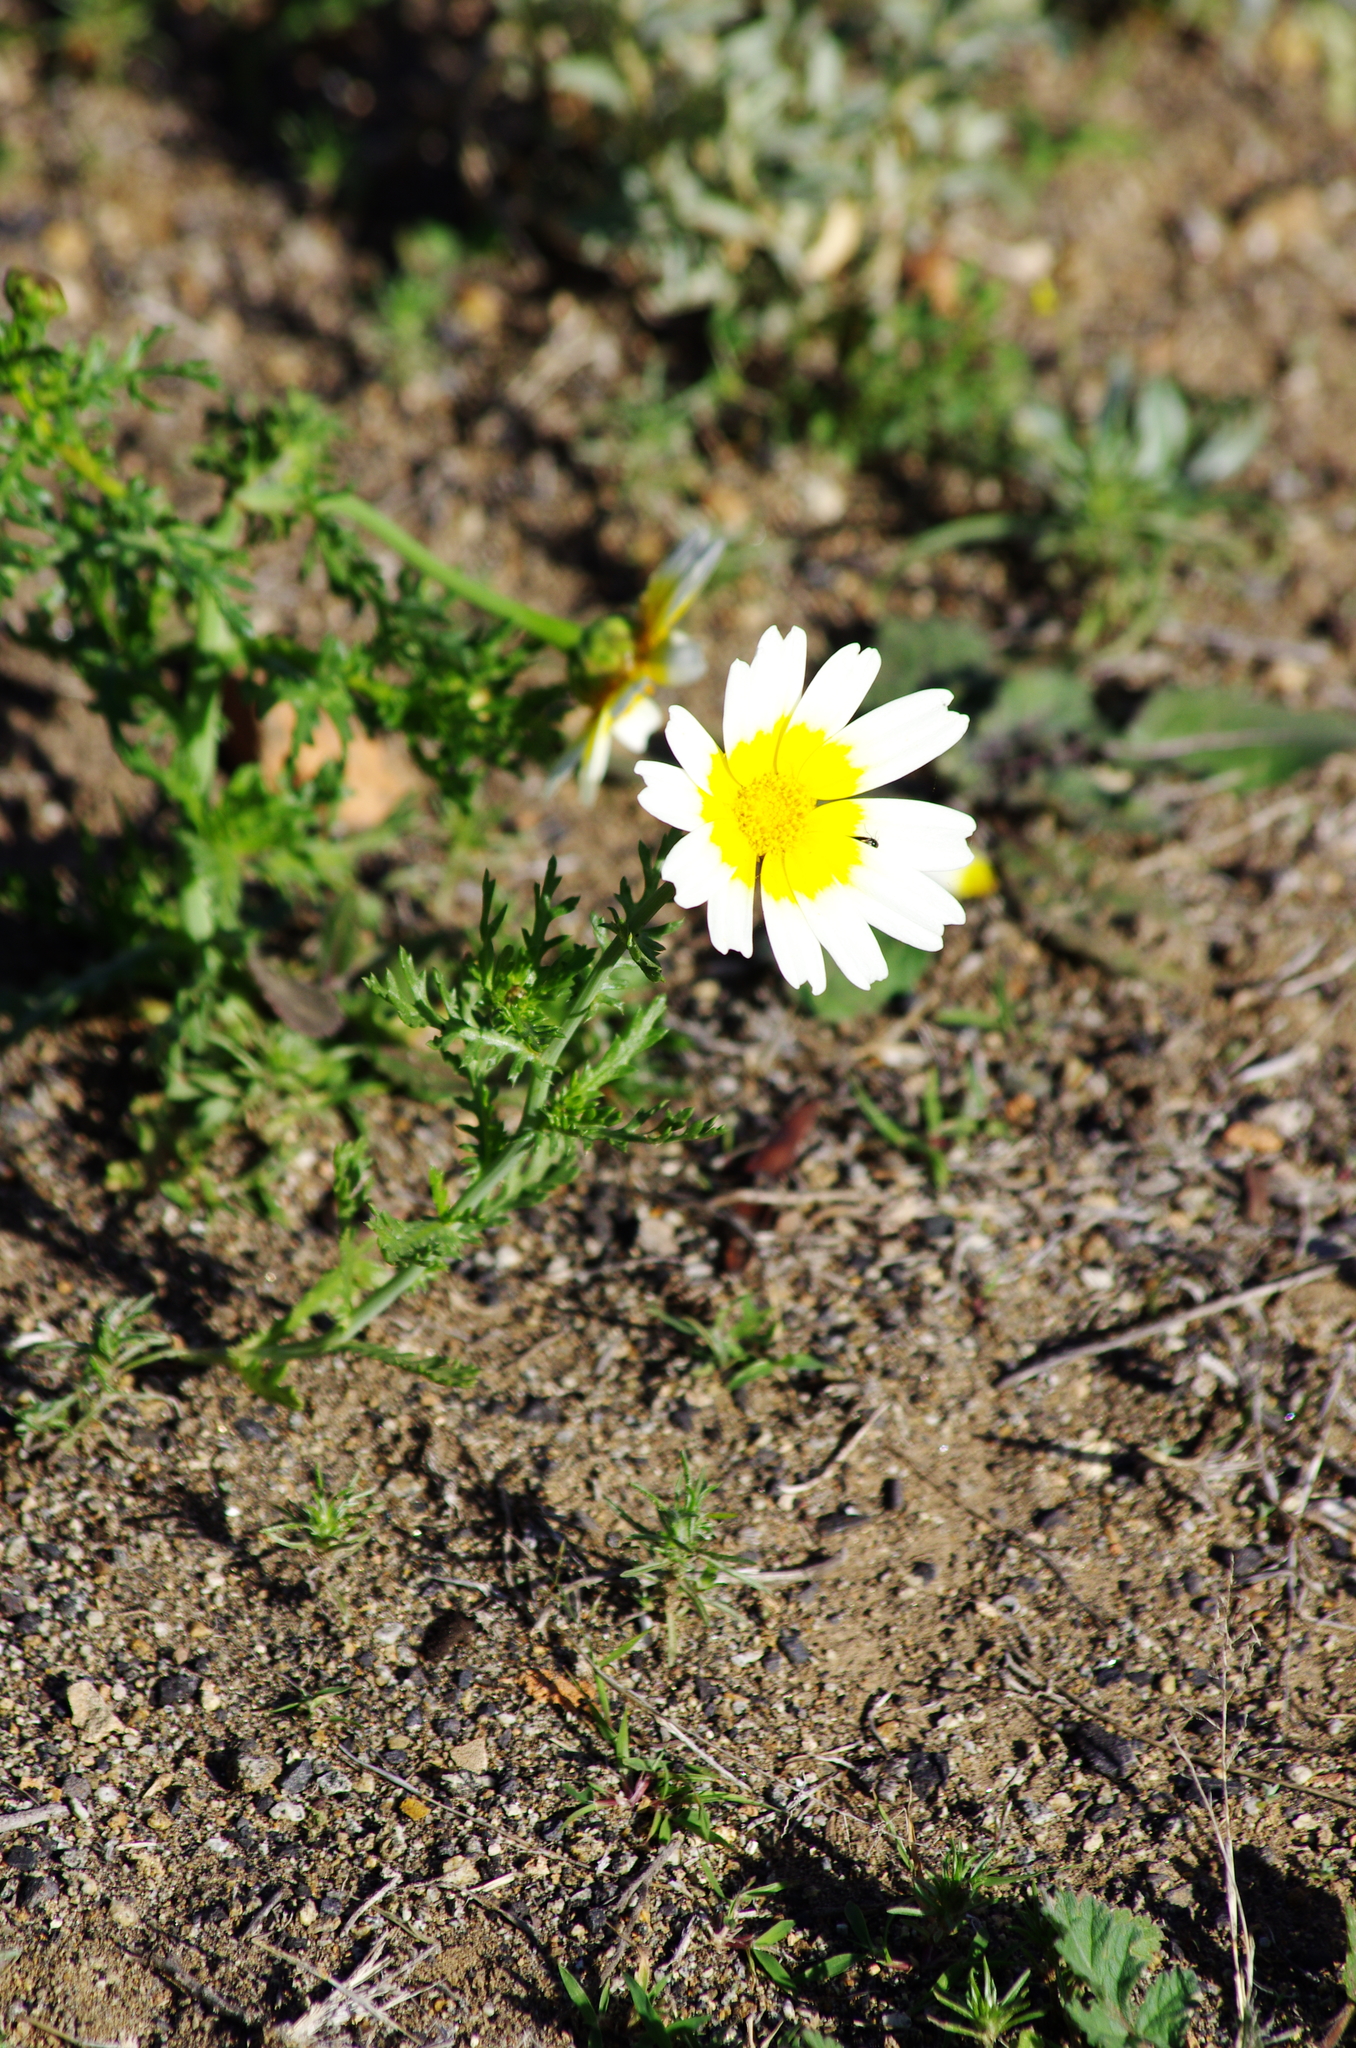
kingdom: Plantae
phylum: Tracheophyta
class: Magnoliopsida
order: Asterales
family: Asteraceae
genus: Glebionis
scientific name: Glebionis coronaria
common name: Crowndaisy
